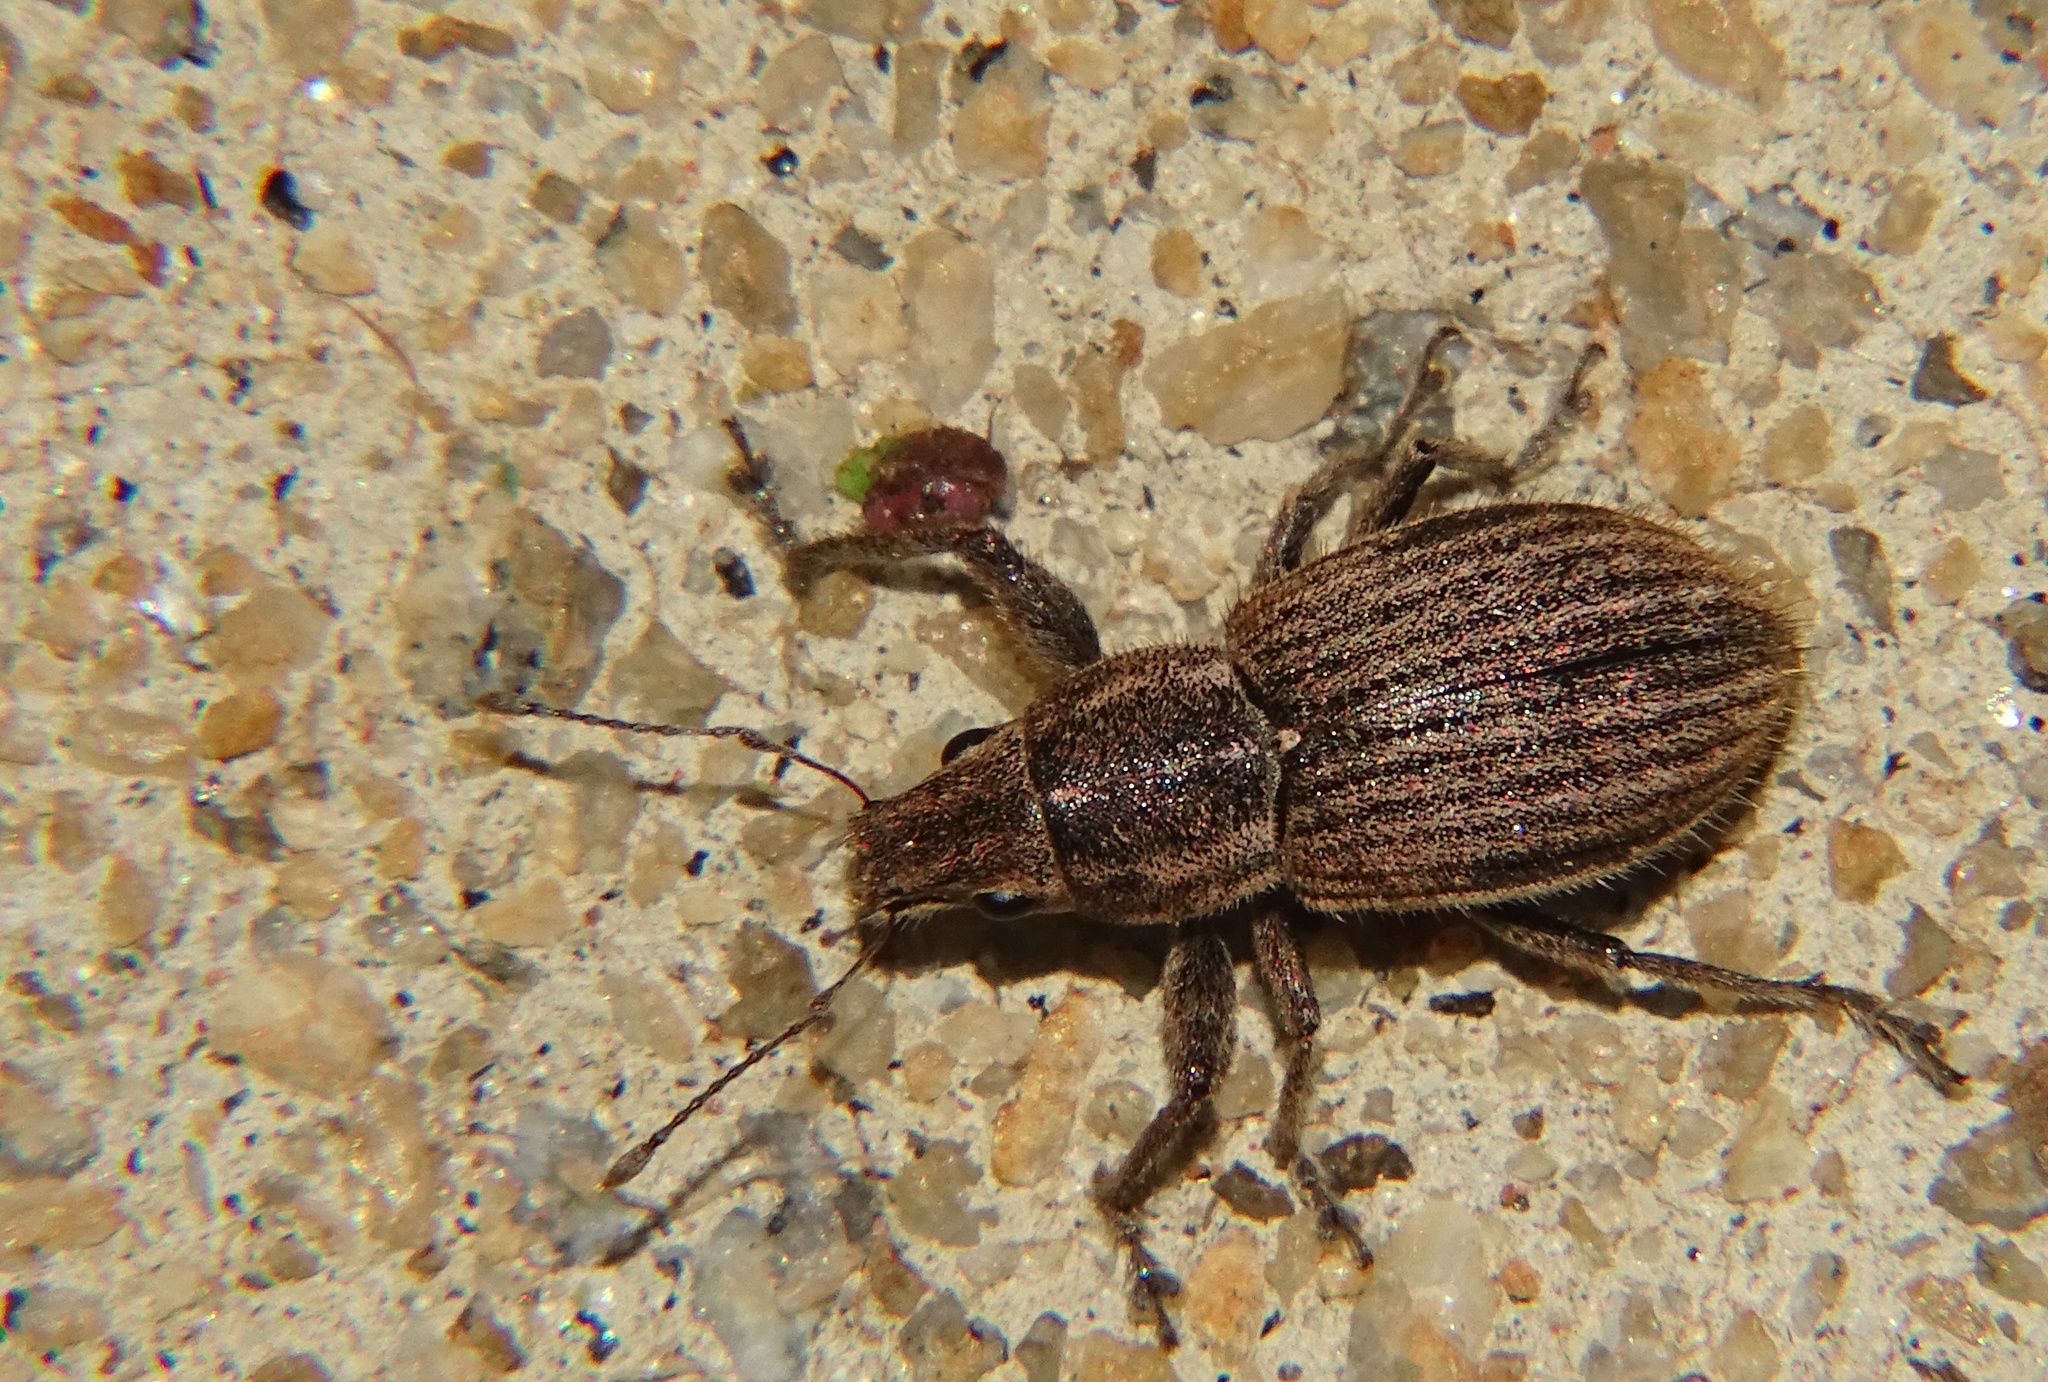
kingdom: Animalia
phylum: Arthropoda
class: Insecta
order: Coleoptera
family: Curculionidae
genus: Naupactus
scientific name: Naupactus leucoloma
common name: Whitefringed beetle
